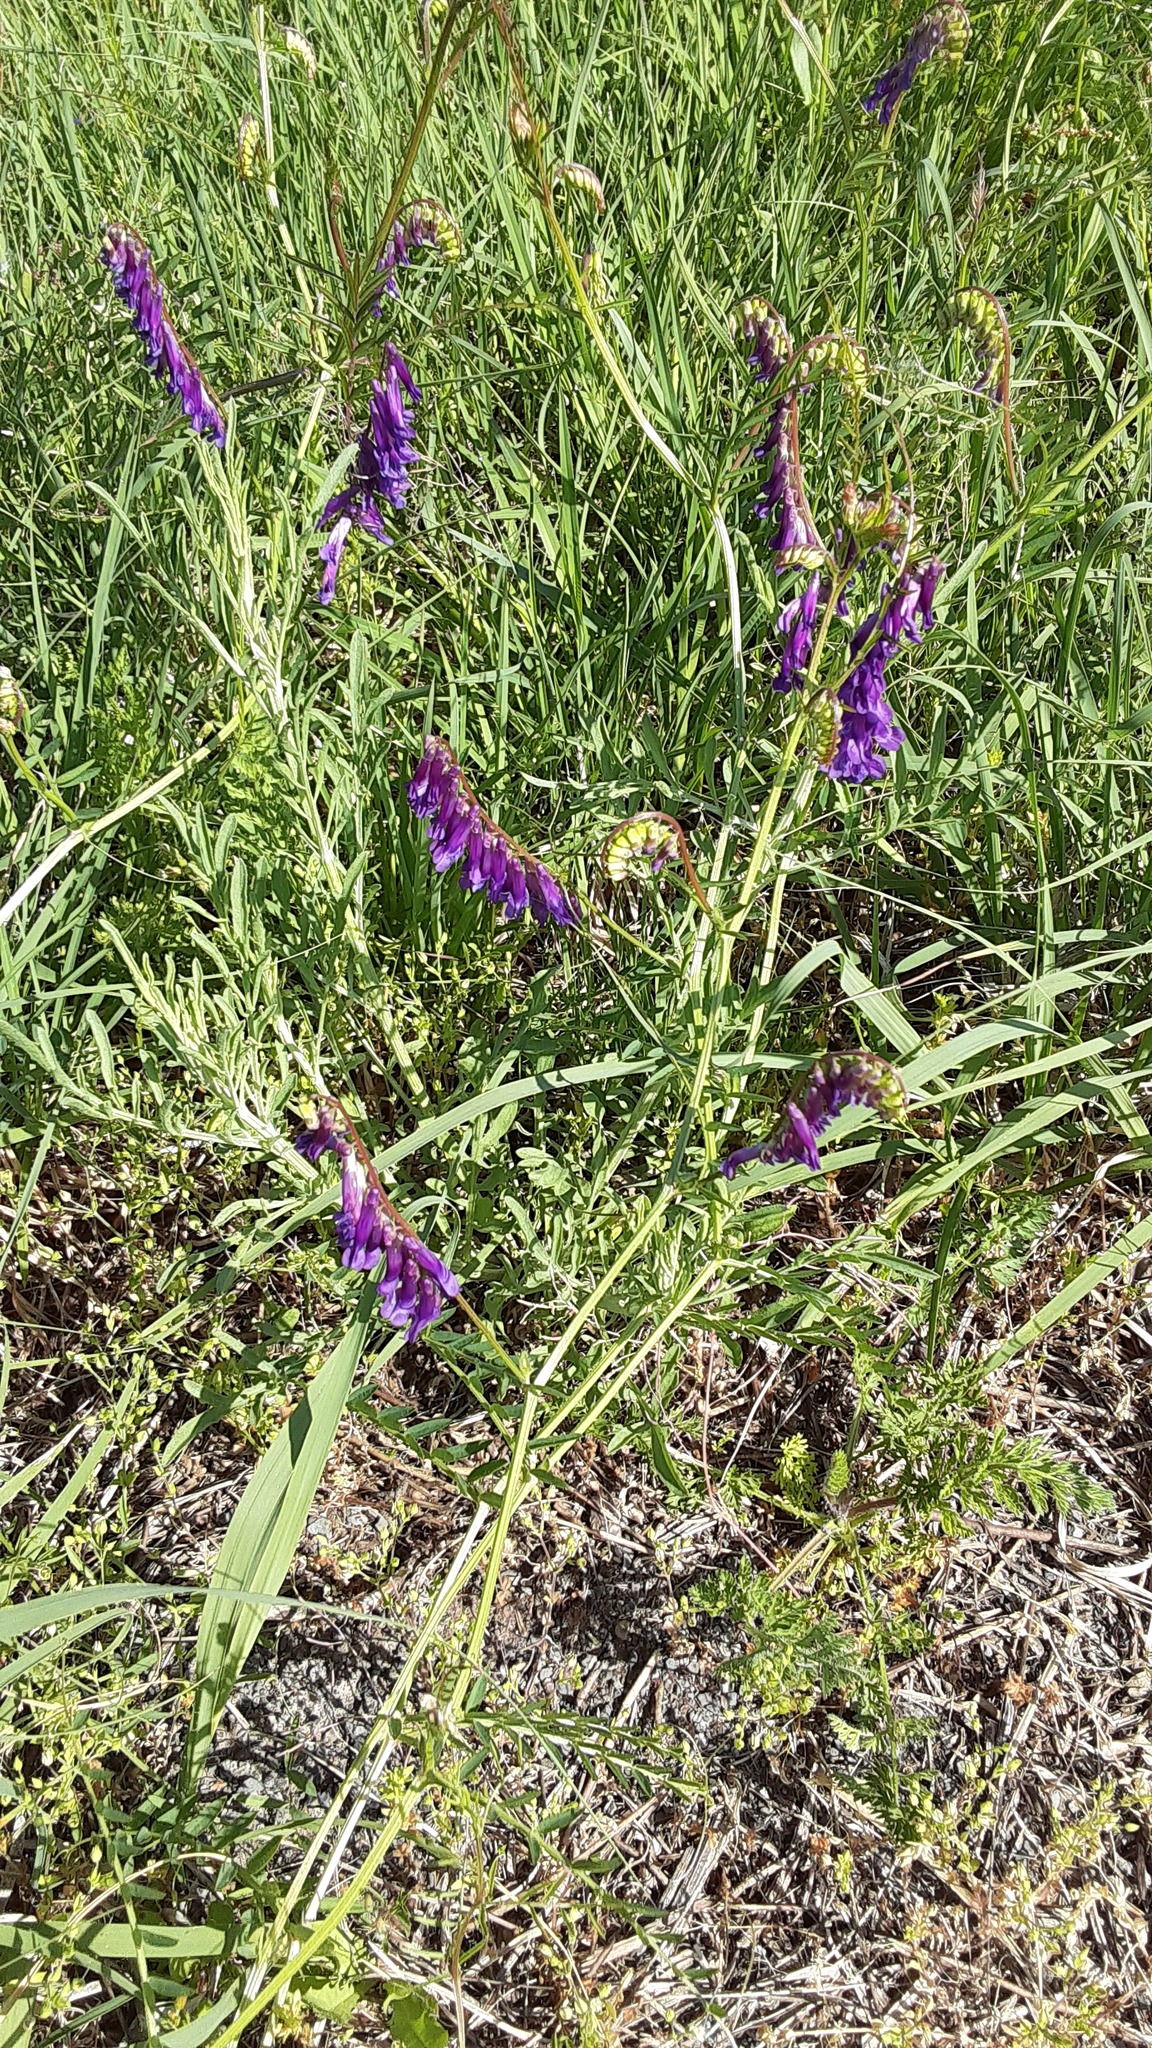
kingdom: Plantae
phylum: Tracheophyta
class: Magnoliopsida
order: Fabales
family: Fabaceae
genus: Vicia
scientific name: Vicia villosa
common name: Fodder vetch
